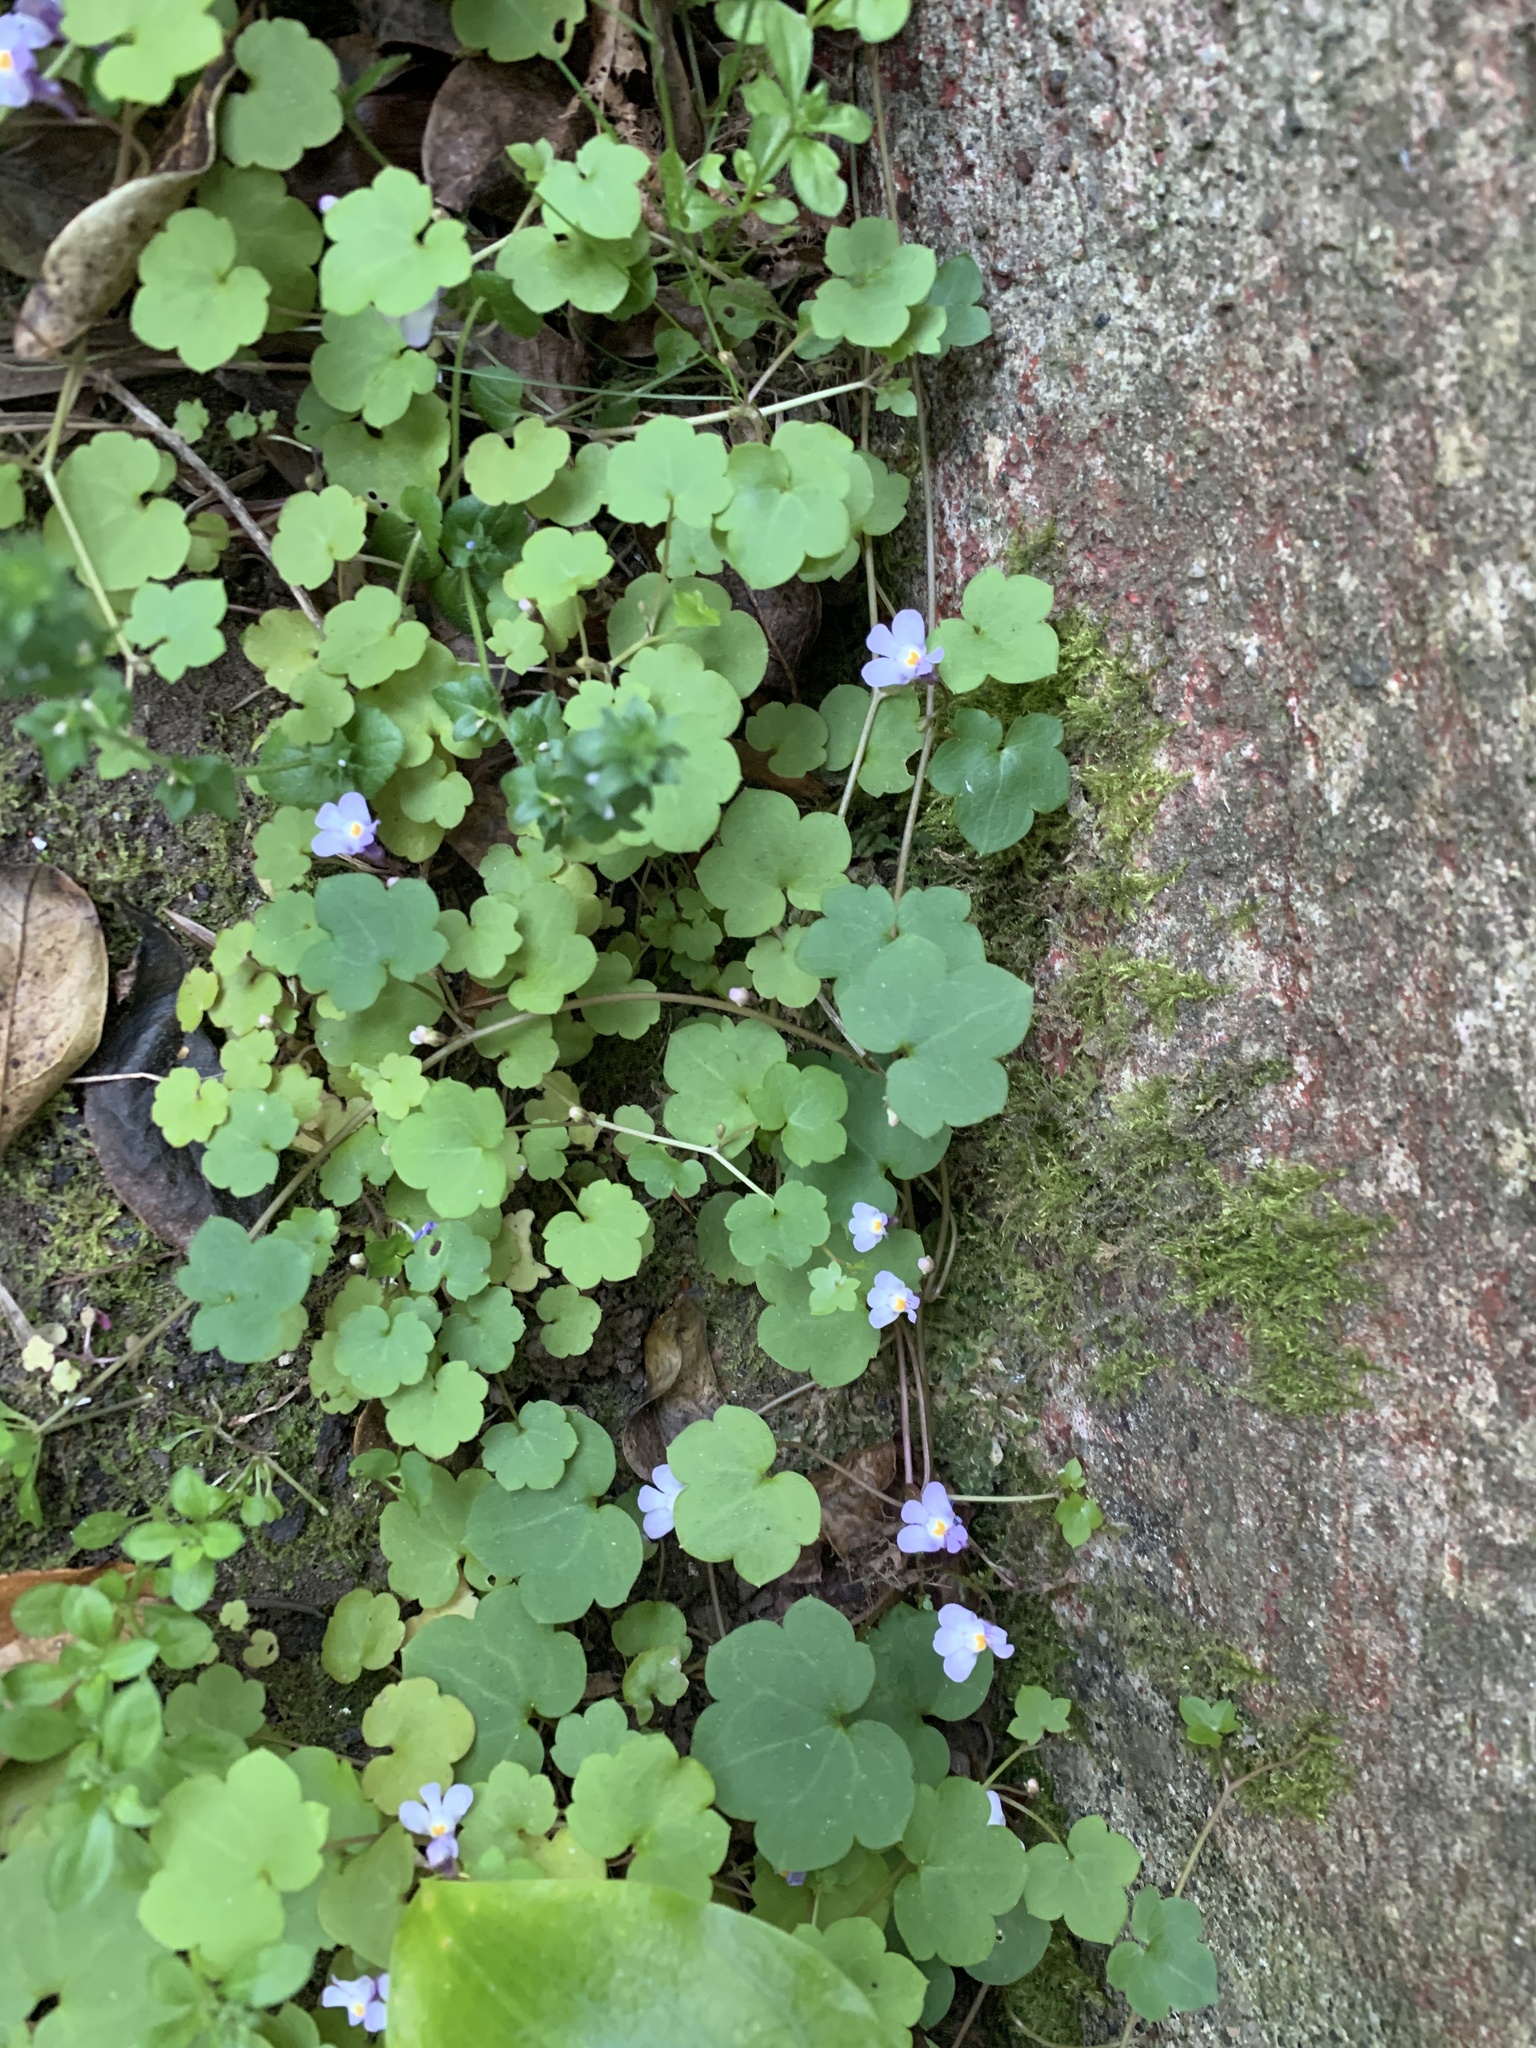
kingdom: Plantae
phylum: Tracheophyta
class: Magnoliopsida
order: Lamiales
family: Plantaginaceae
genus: Cymbalaria
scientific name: Cymbalaria muralis
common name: Ivy-leaved toadflax
